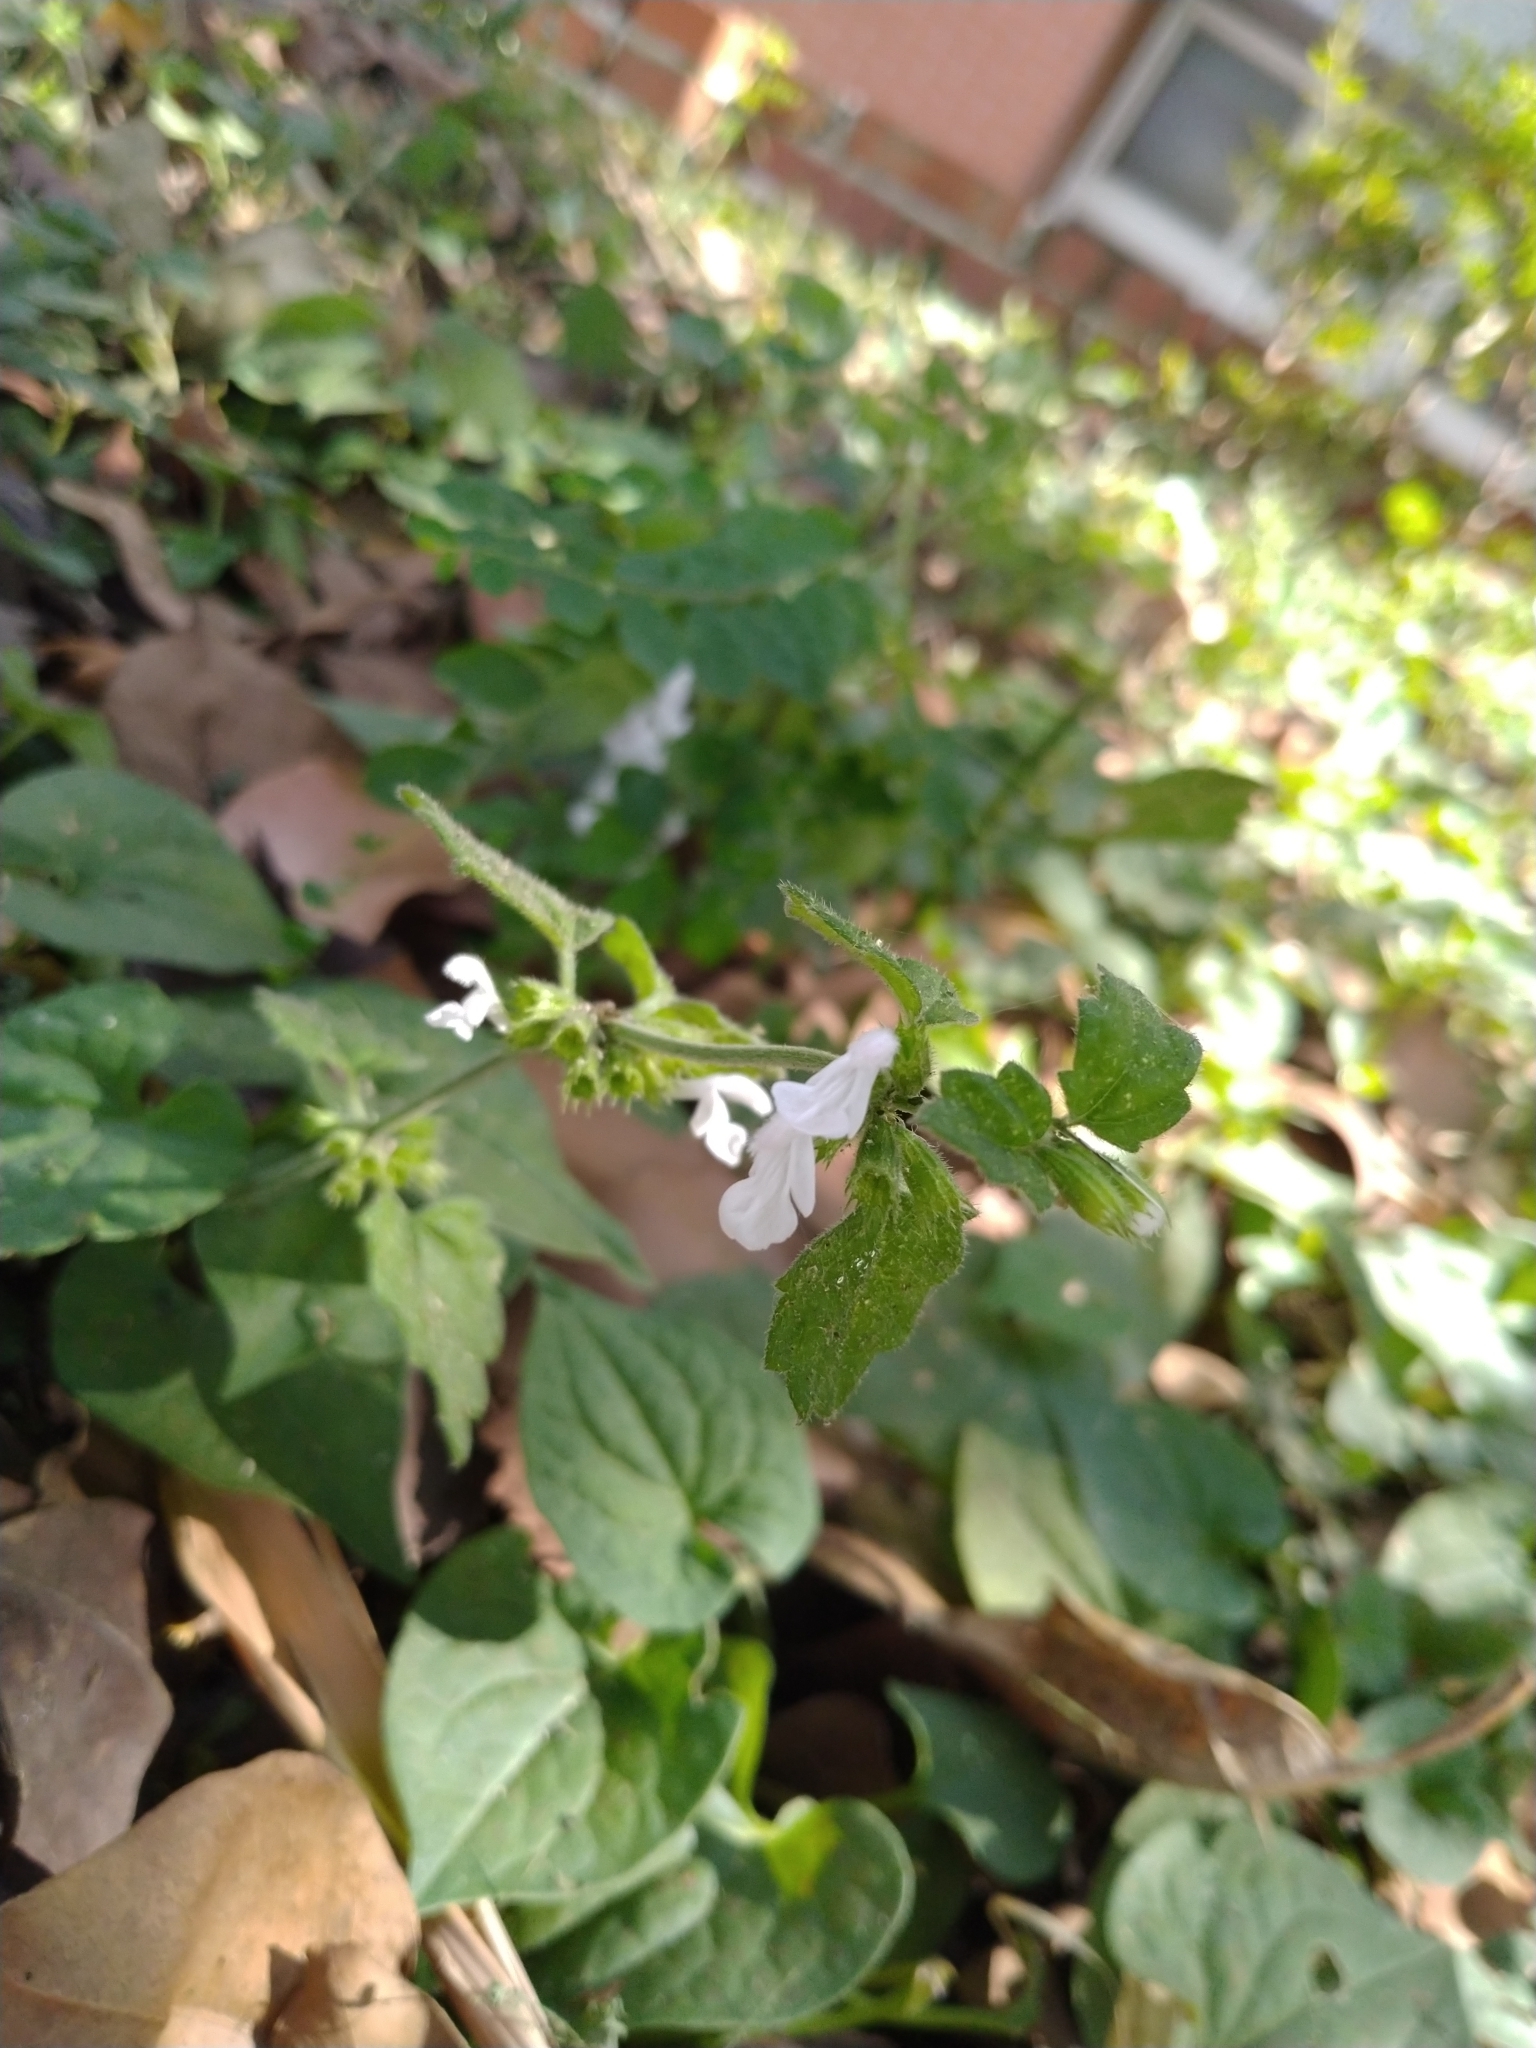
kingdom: Plantae
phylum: Tracheophyta
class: Magnoliopsida
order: Lamiales
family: Lamiaceae
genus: Leucas
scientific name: Leucas chinensis
